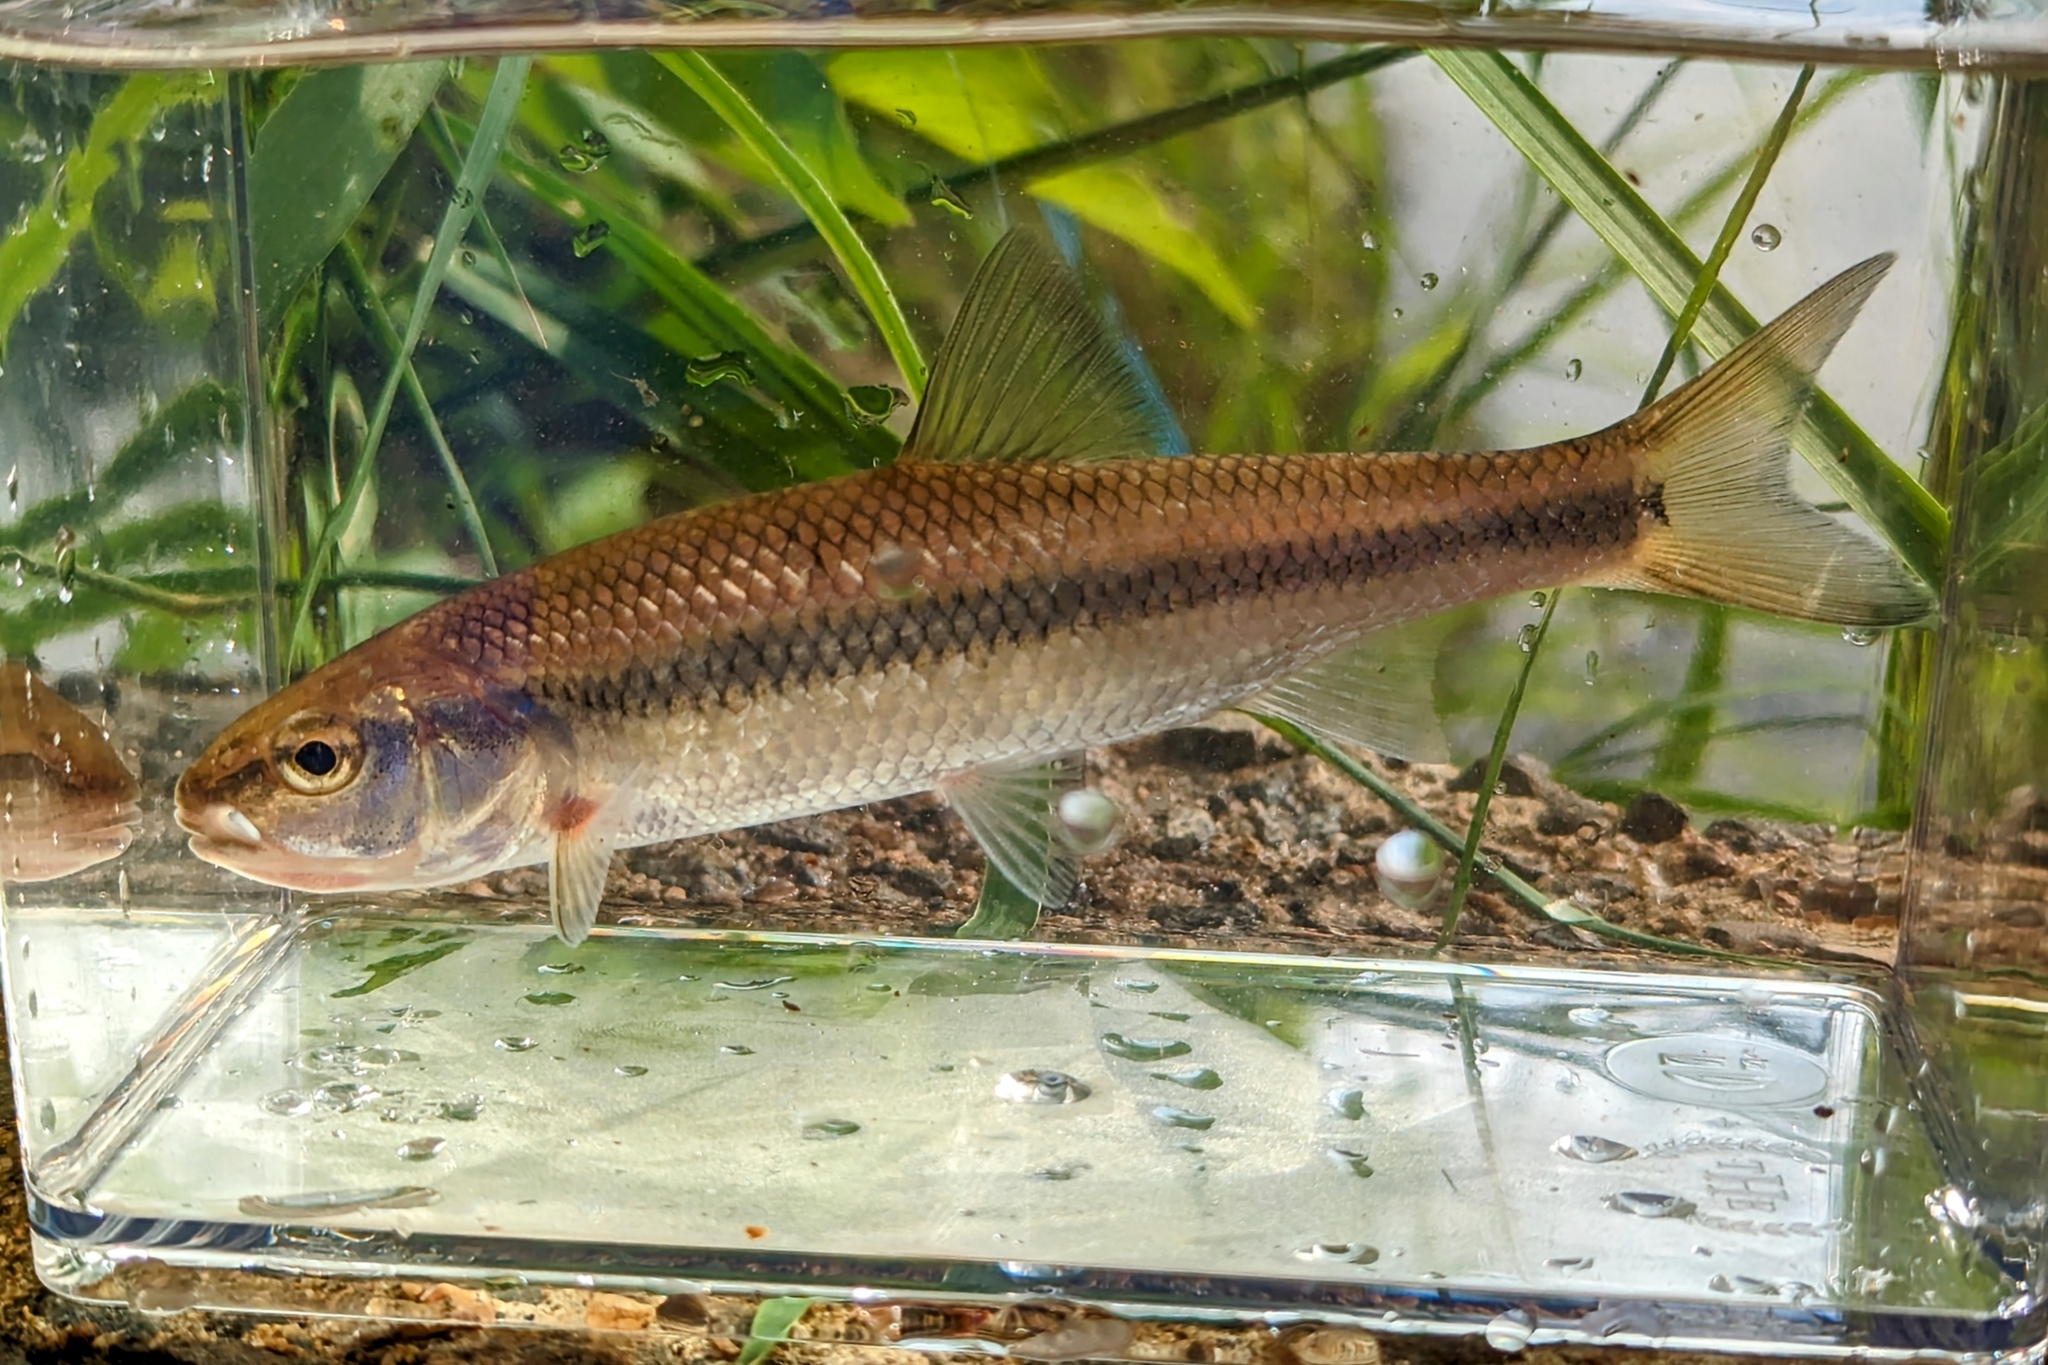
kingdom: Animalia
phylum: Chordata
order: Cypriniformes
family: Cyprinidae
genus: Semotilus
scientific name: Semotilus corporalis
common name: Fallfish
